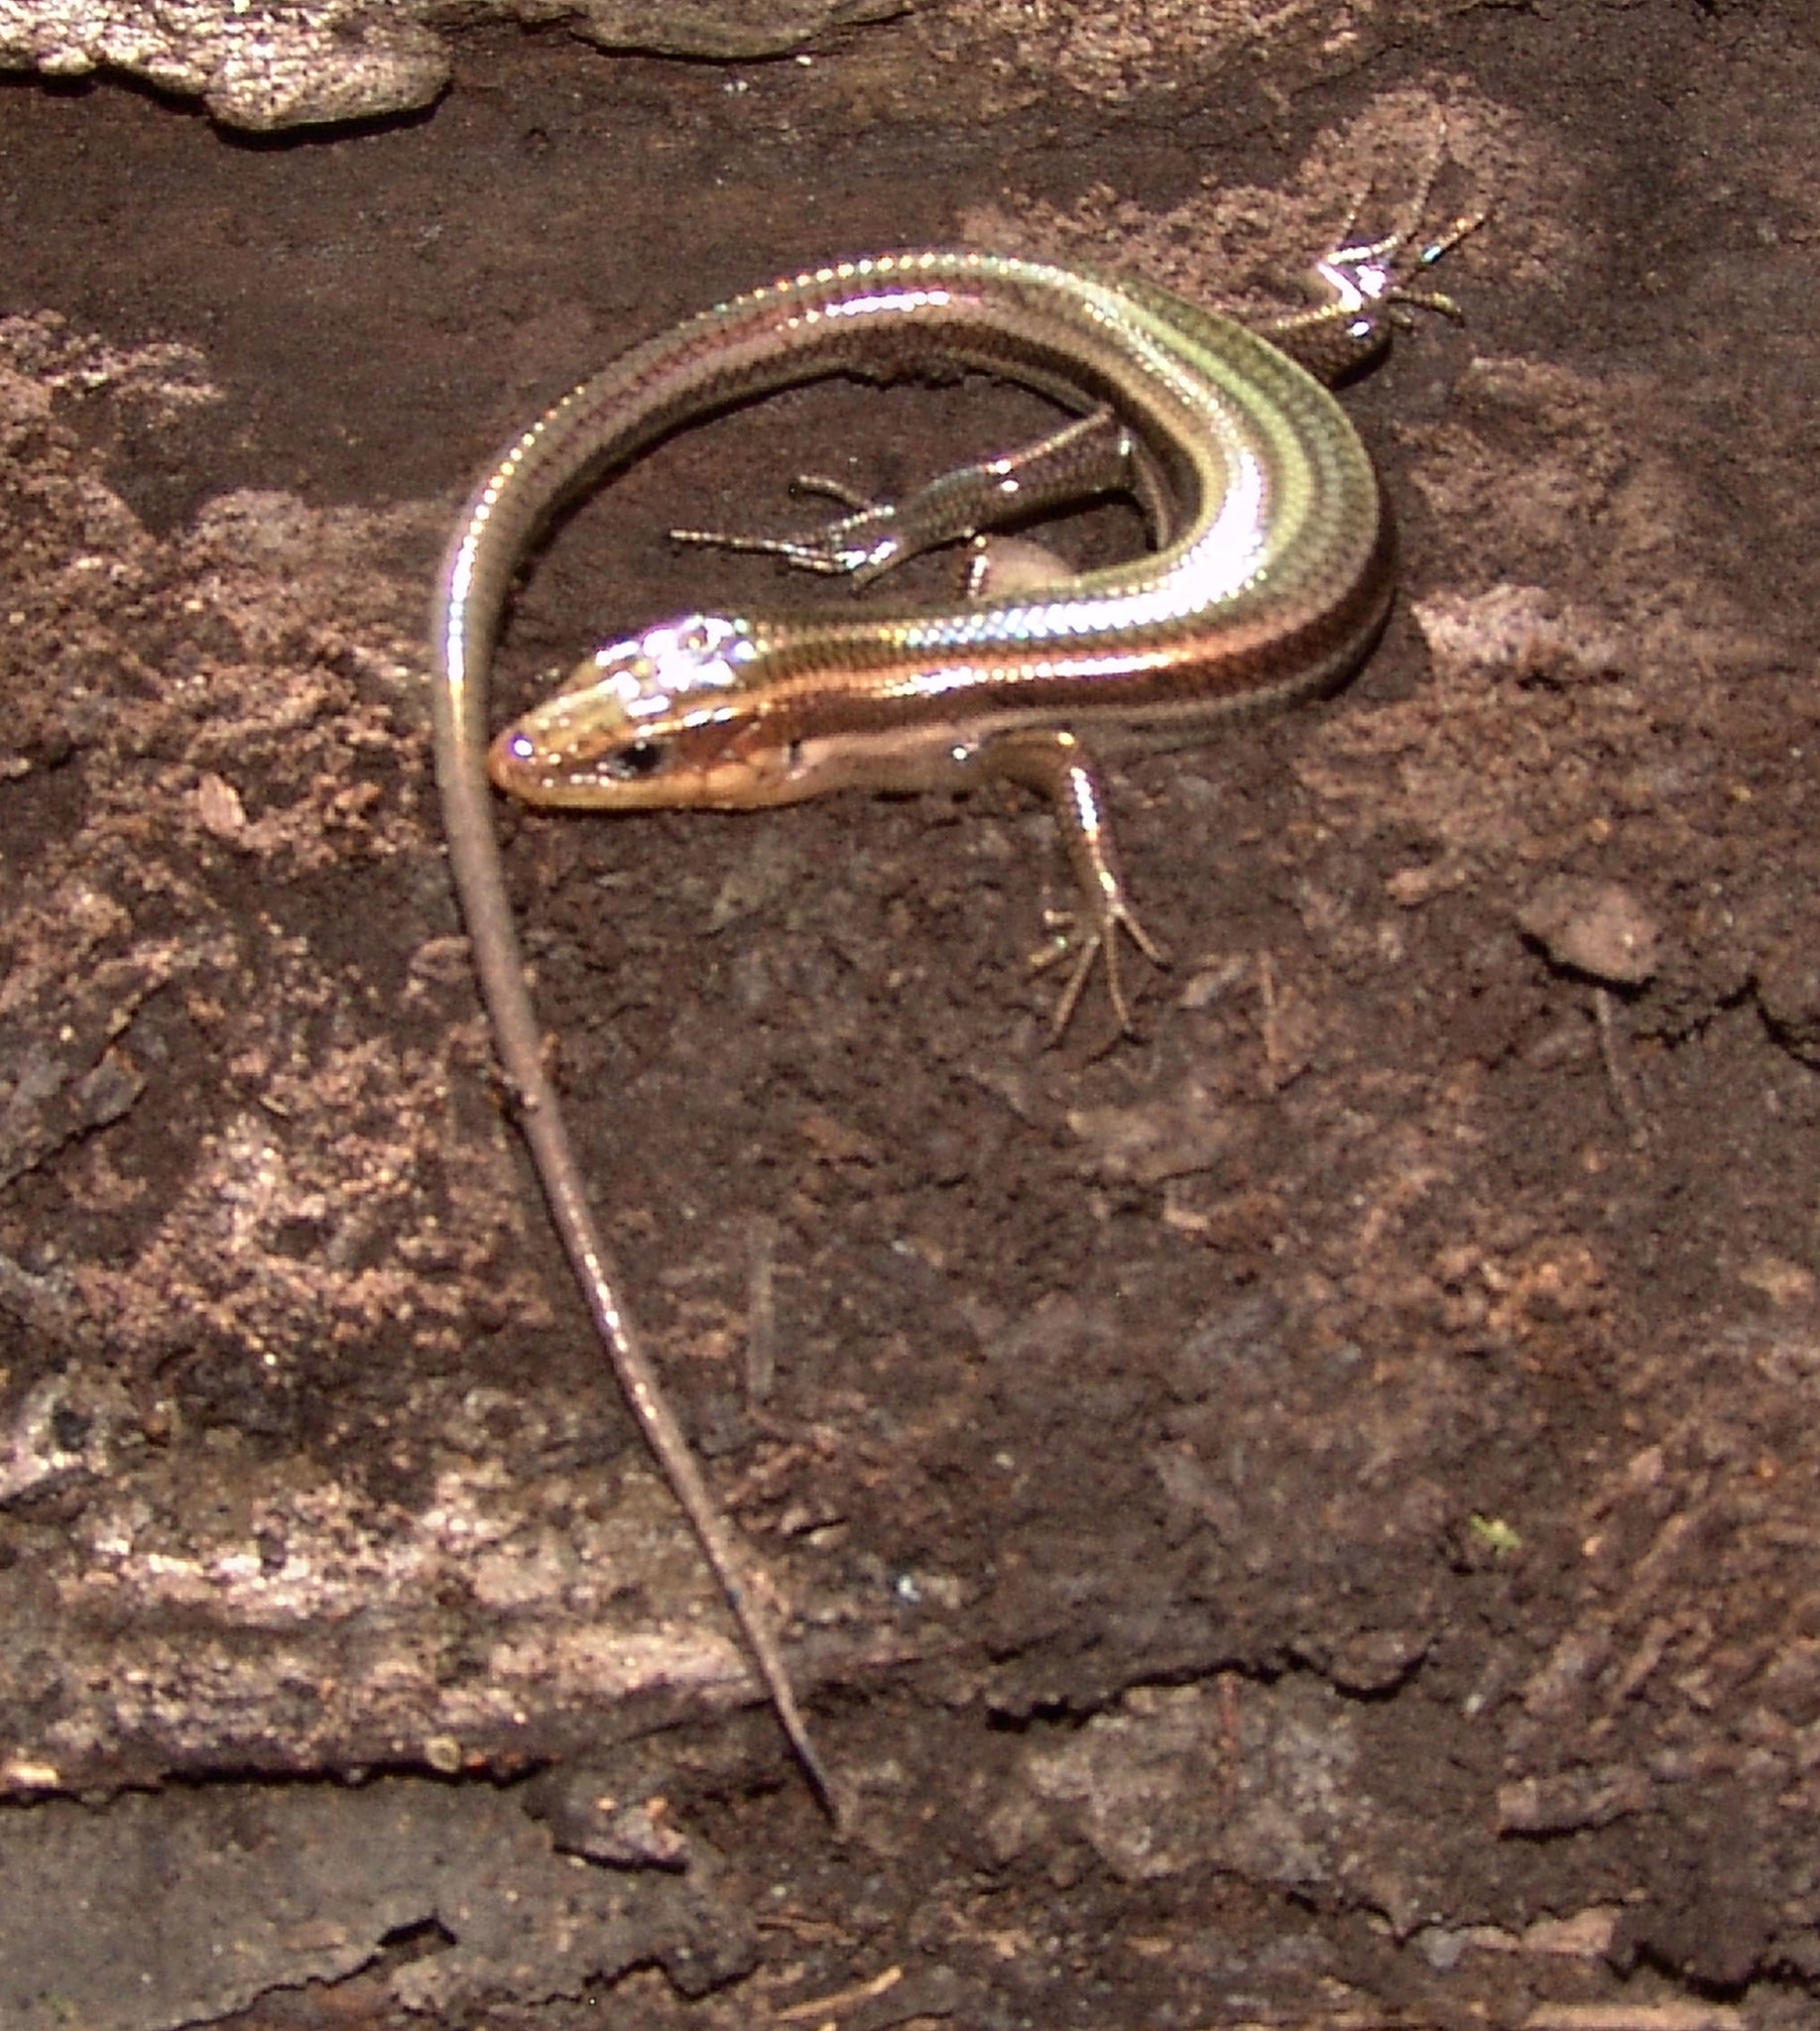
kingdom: Animalia
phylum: Chordata
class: Squamata
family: Scincidae
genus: Plestiodon
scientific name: Plestiodon fasciatus
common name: Five-lined skink
